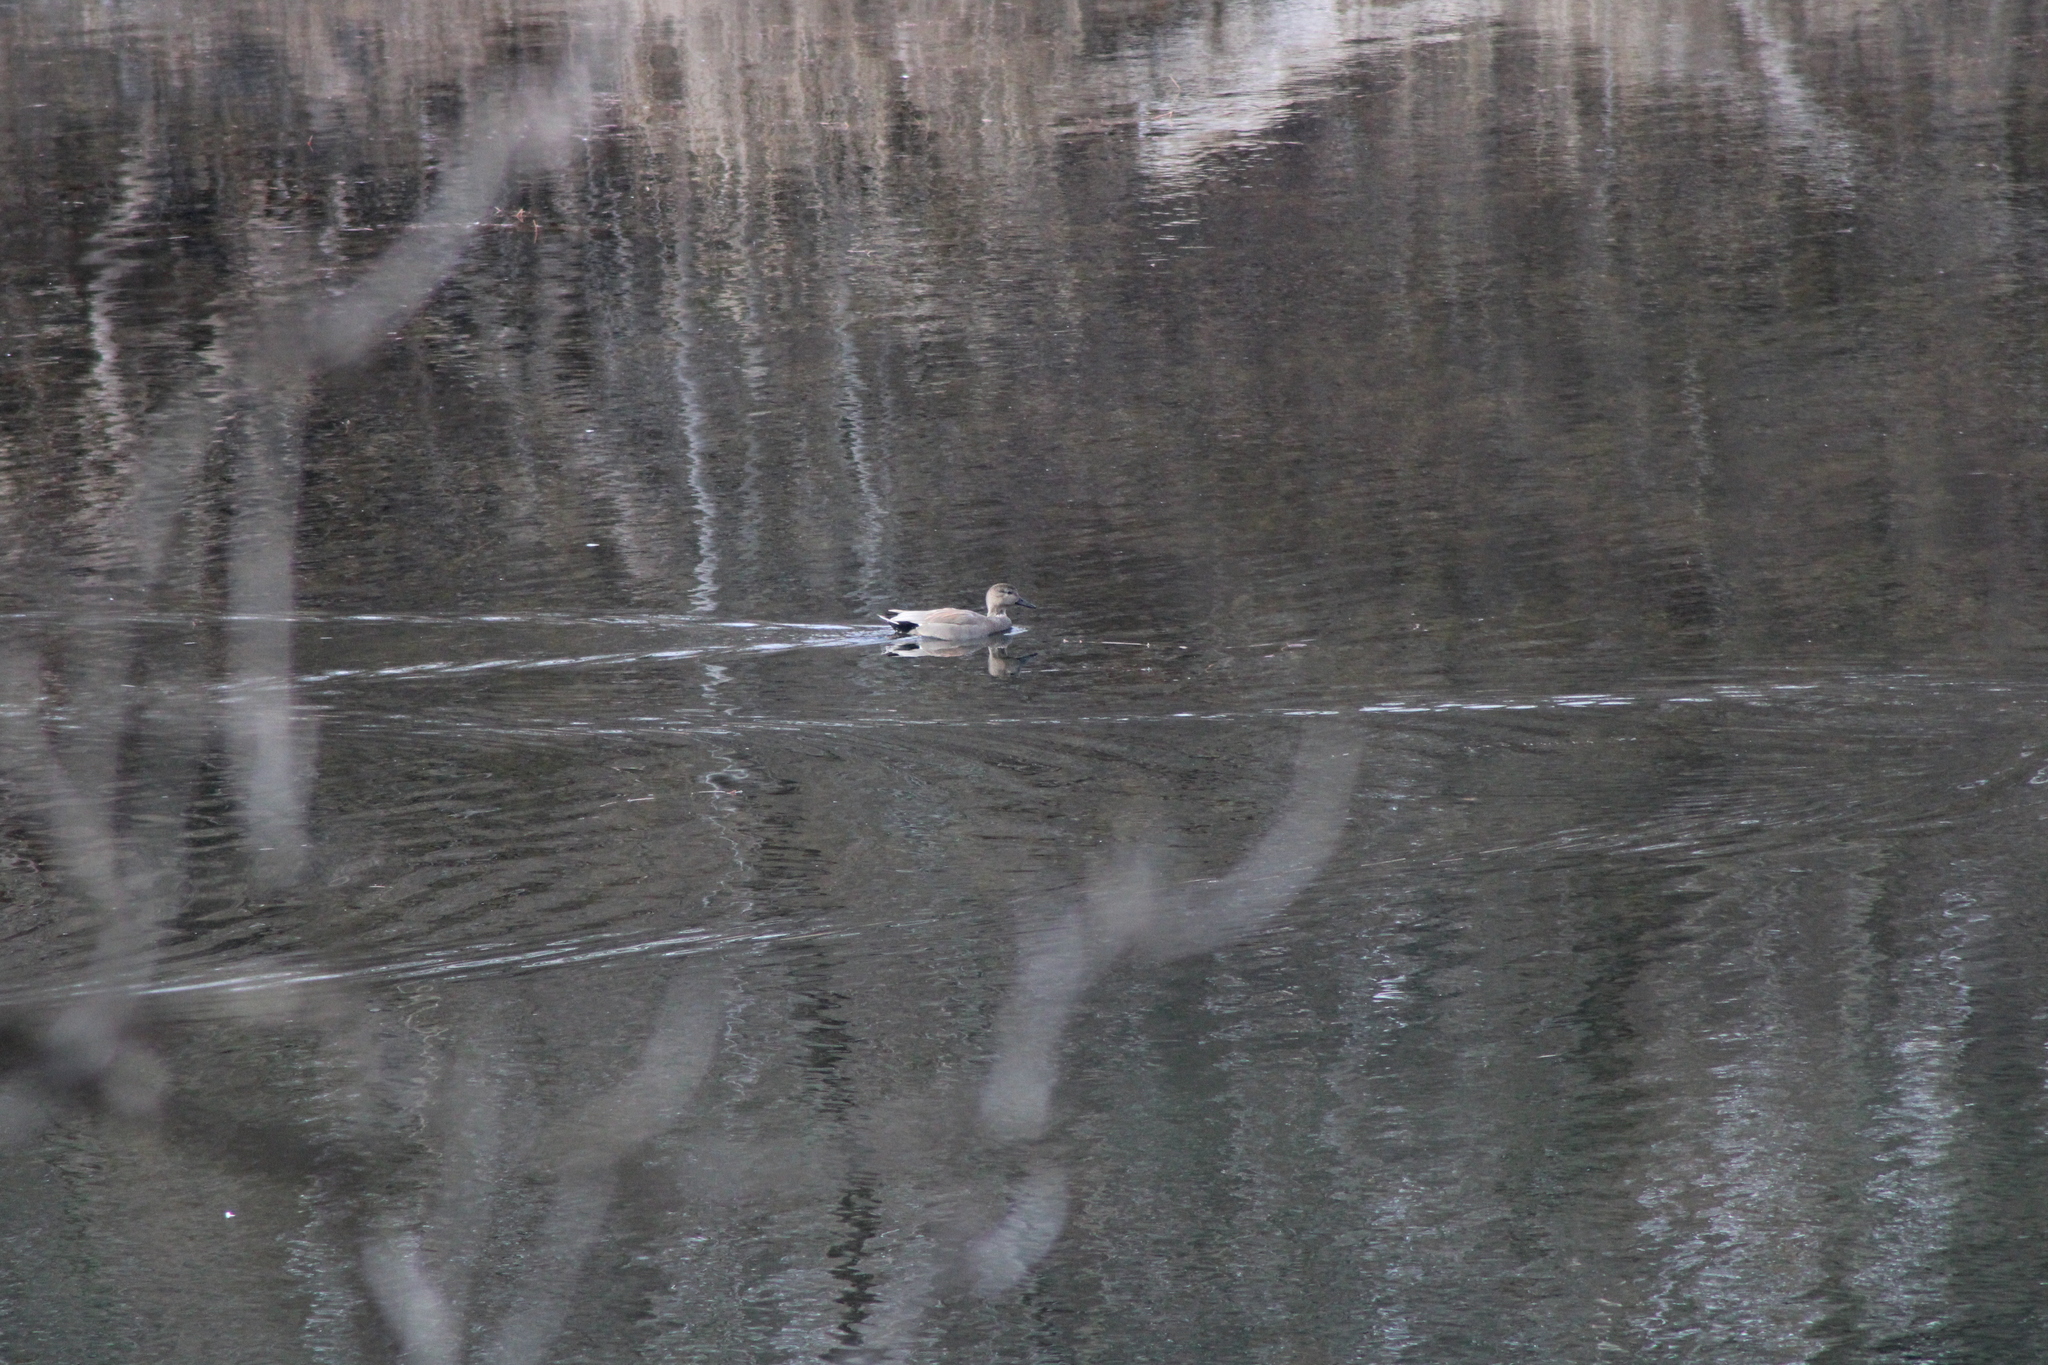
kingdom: Animalia
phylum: Chordata
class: Aves
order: Anseriformes
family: Anatidae
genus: Mareca
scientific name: Mareca strepera
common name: Gadwall
